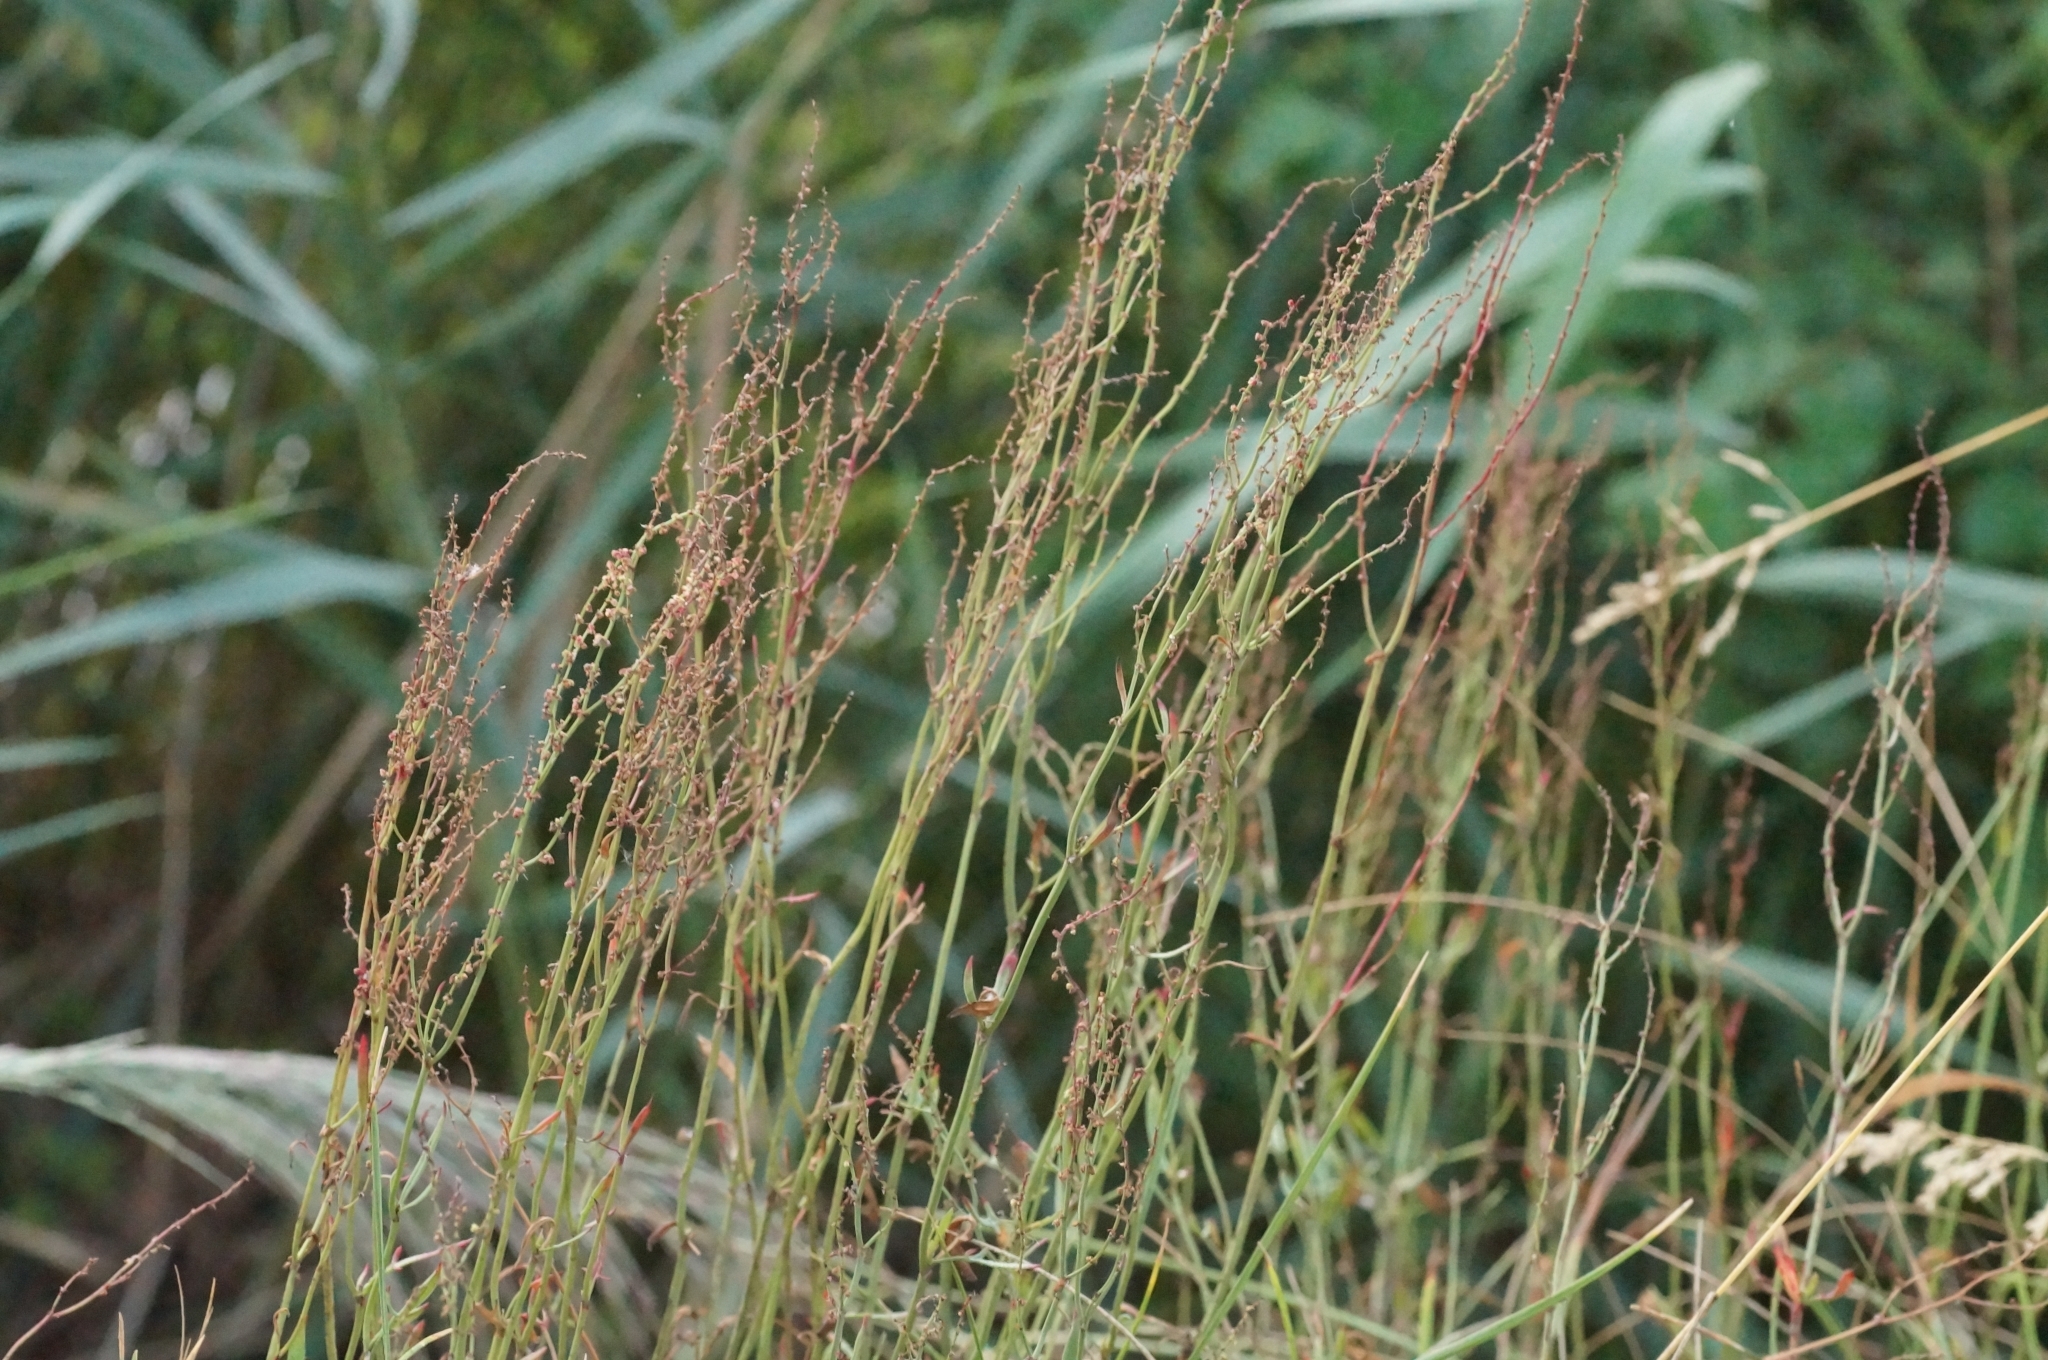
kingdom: Plantae
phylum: Tracheophyta
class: Magnoliopsida
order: Caryophyllales
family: Polygonaceae
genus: Rumex
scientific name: Rumex acetosella
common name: Common sheep sorrel
